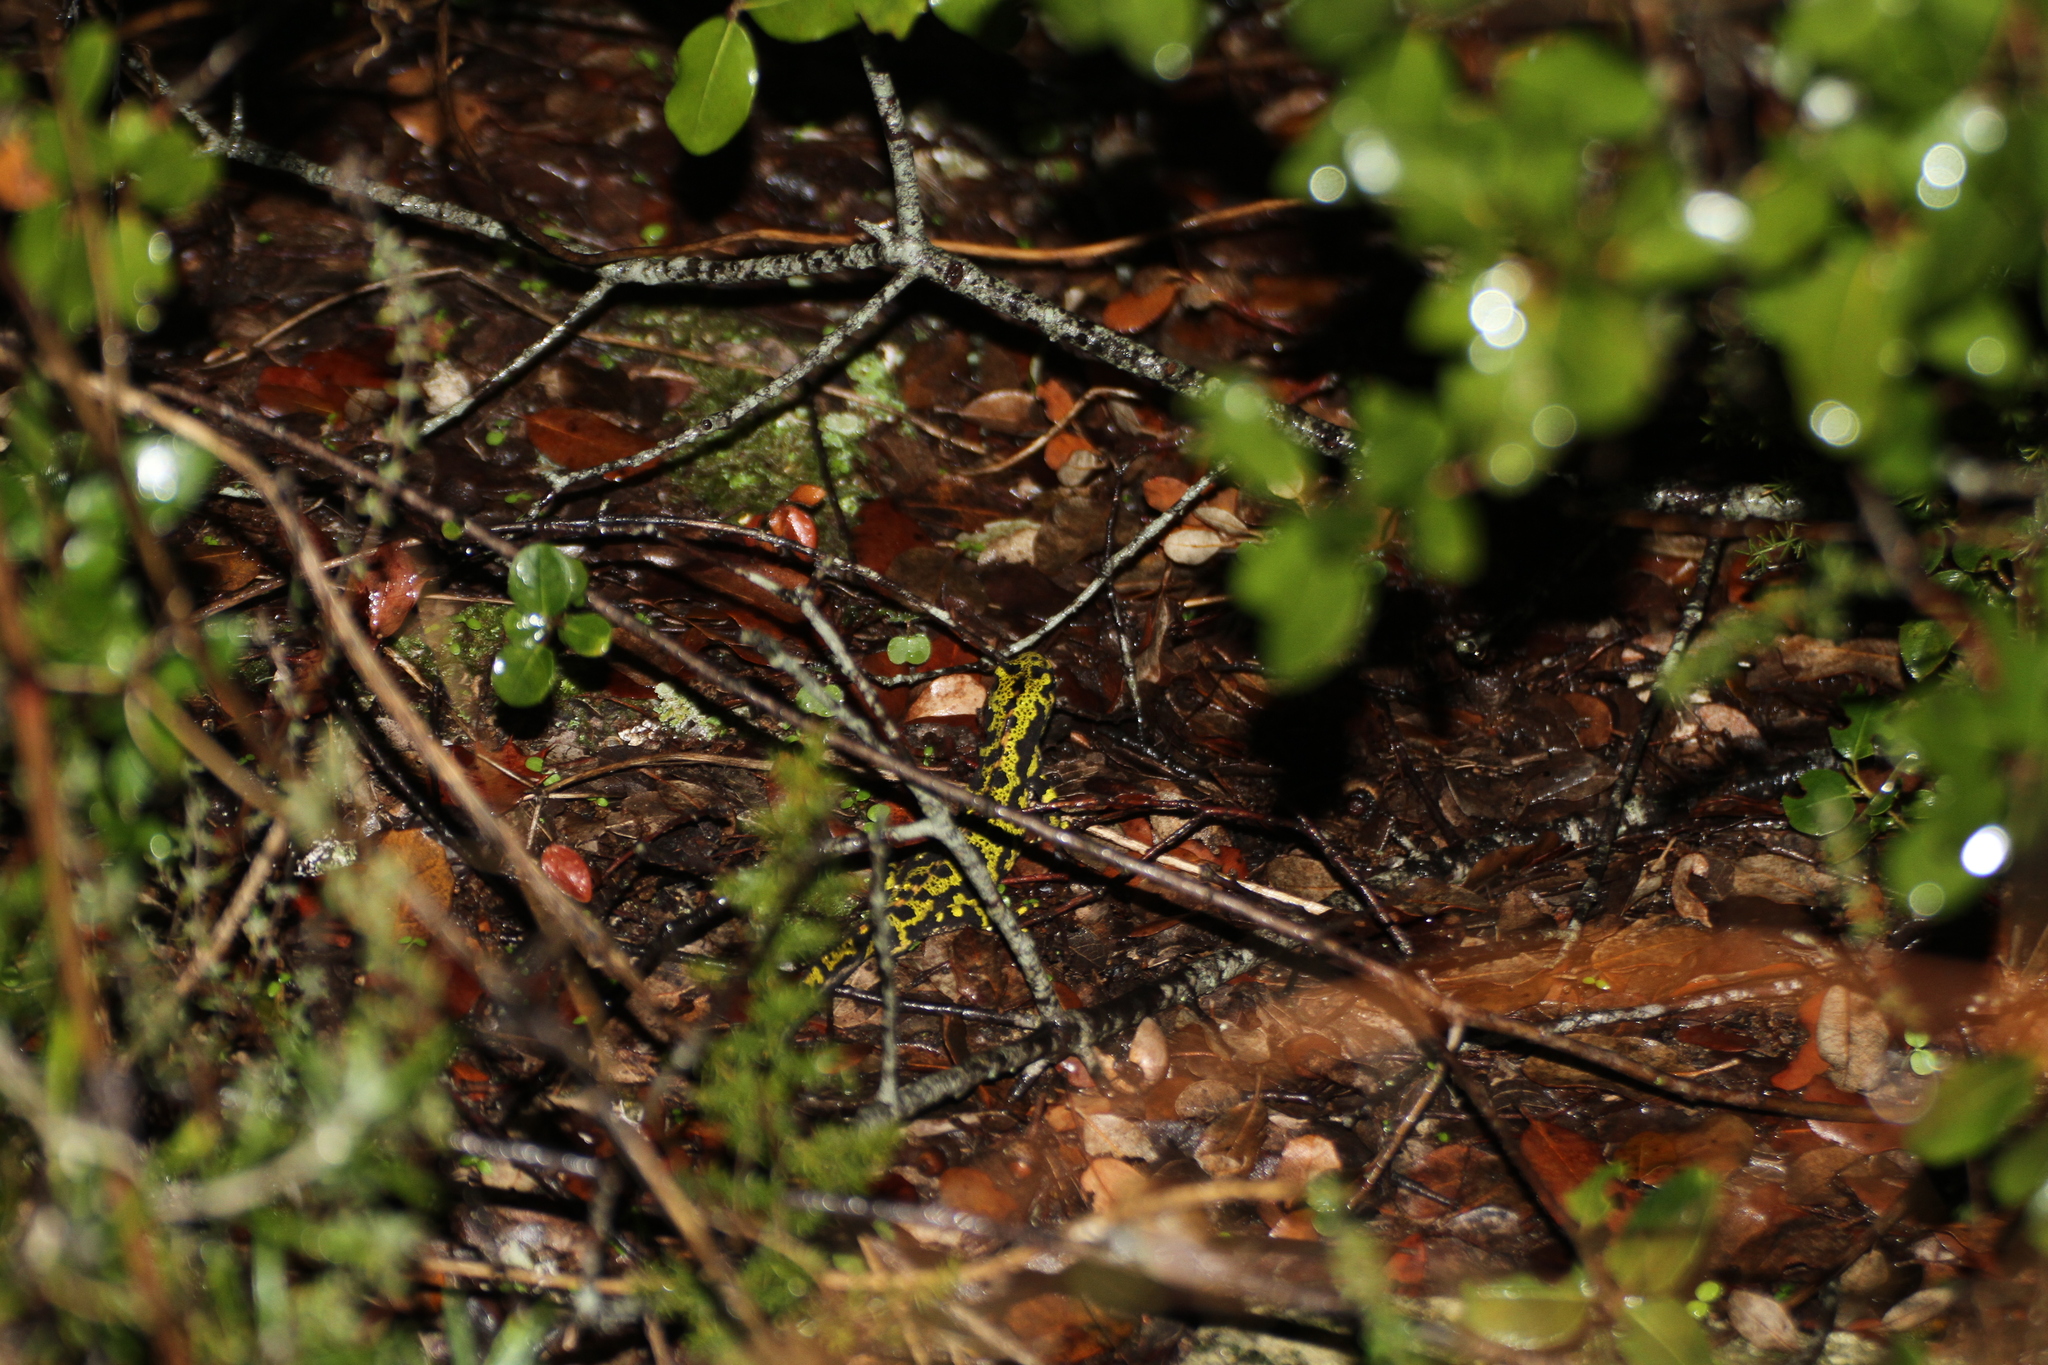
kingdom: Animalia
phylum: Chordata
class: Amphibia
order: Caudata
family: Salamandridae
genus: Triturus
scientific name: Triturus marmoratus
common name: Marbled newt
